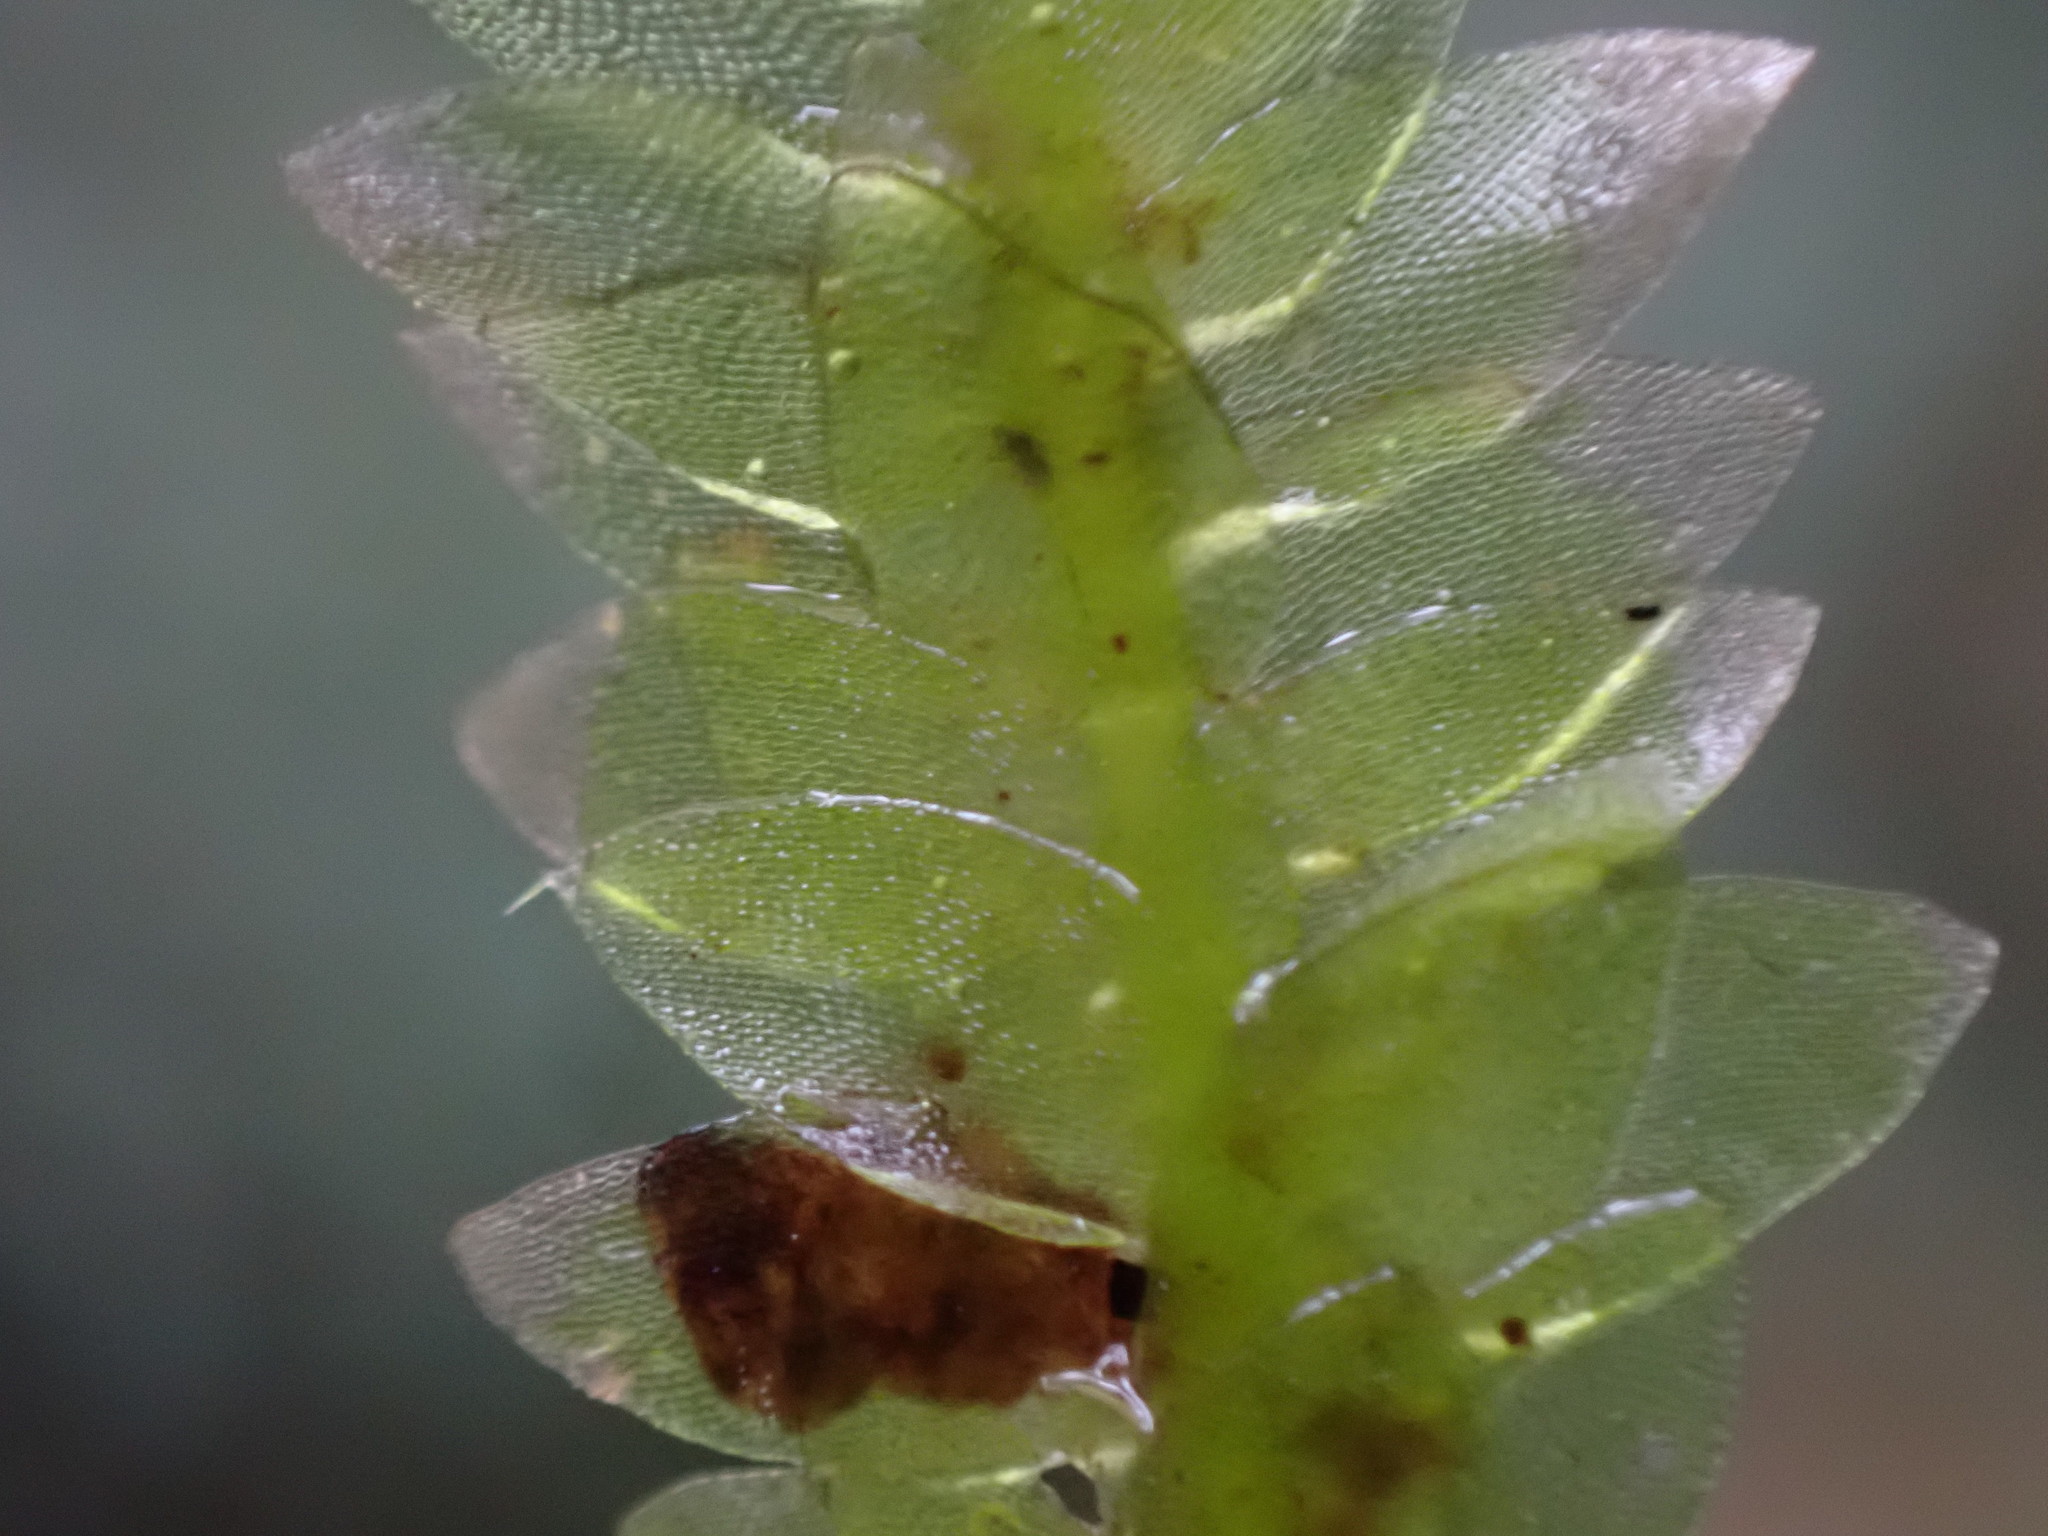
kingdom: Plantae
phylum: Bryophyta
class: Bryopsida
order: Hookeriales
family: Hookeriaceae
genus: Hookeria
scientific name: Hookeria lucens
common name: Shining hookeria
